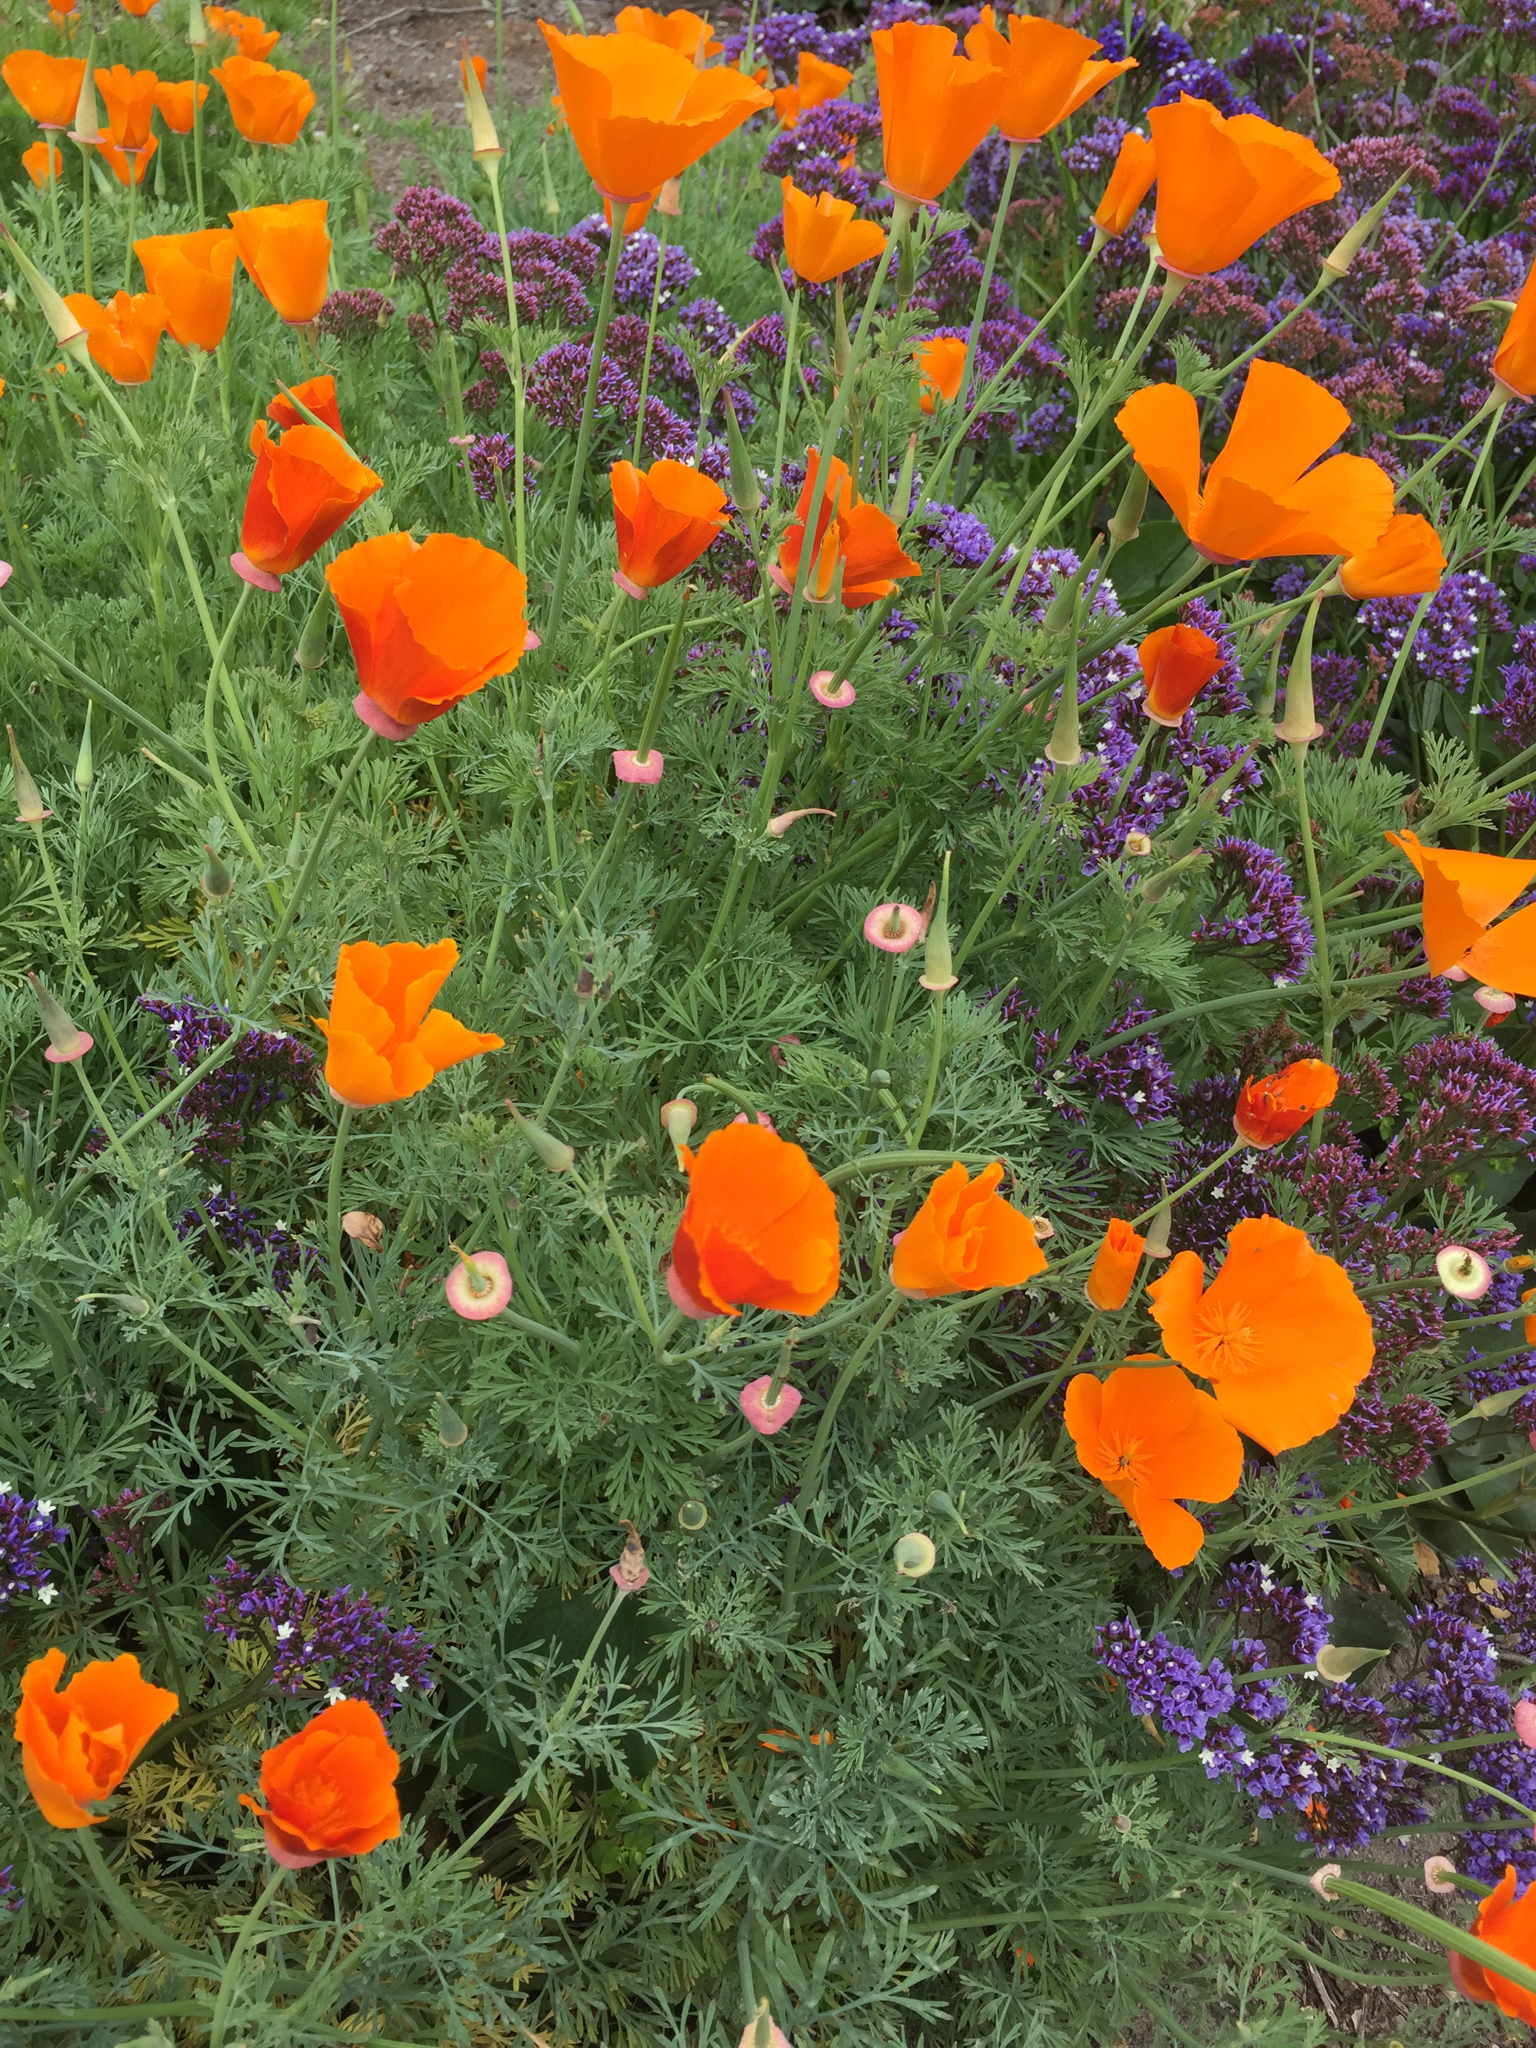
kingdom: Plantae
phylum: Tracheophyta
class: Magnoliopsida
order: Ranunculales
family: Papaveraceae
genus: Eschscholzia
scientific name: Eschscholzia californica
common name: California poppy
